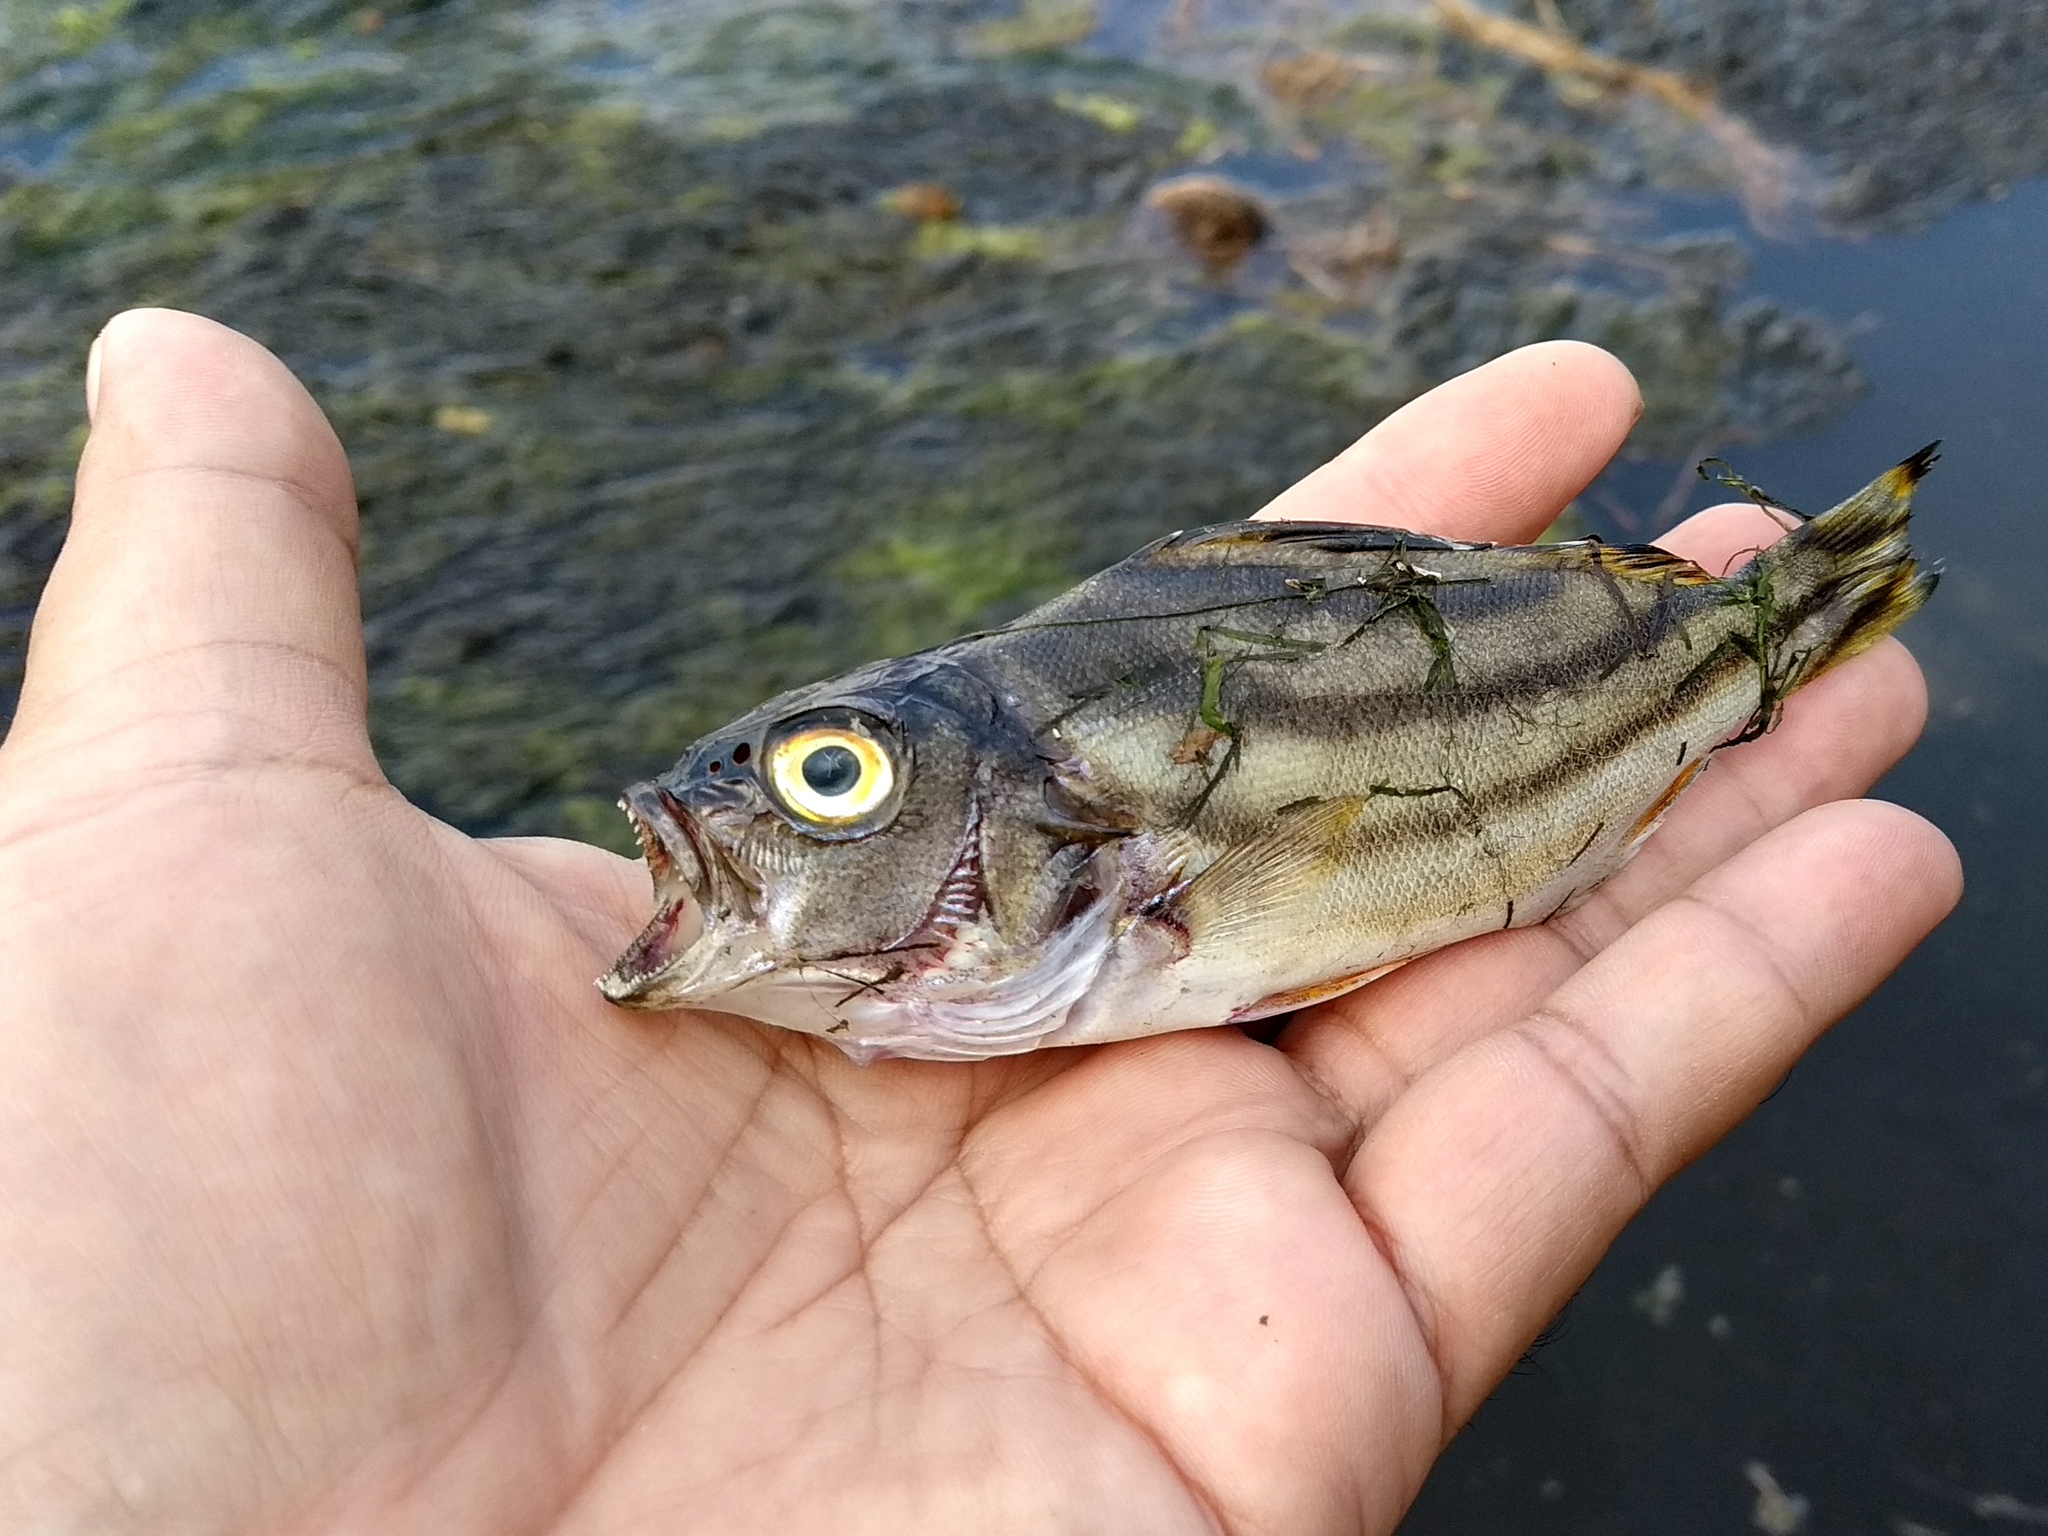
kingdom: Animalia
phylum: Chordata
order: Perciformes
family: Terapontidae
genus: Terapon
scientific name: Terapon jarbua
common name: Jarbua terapon
